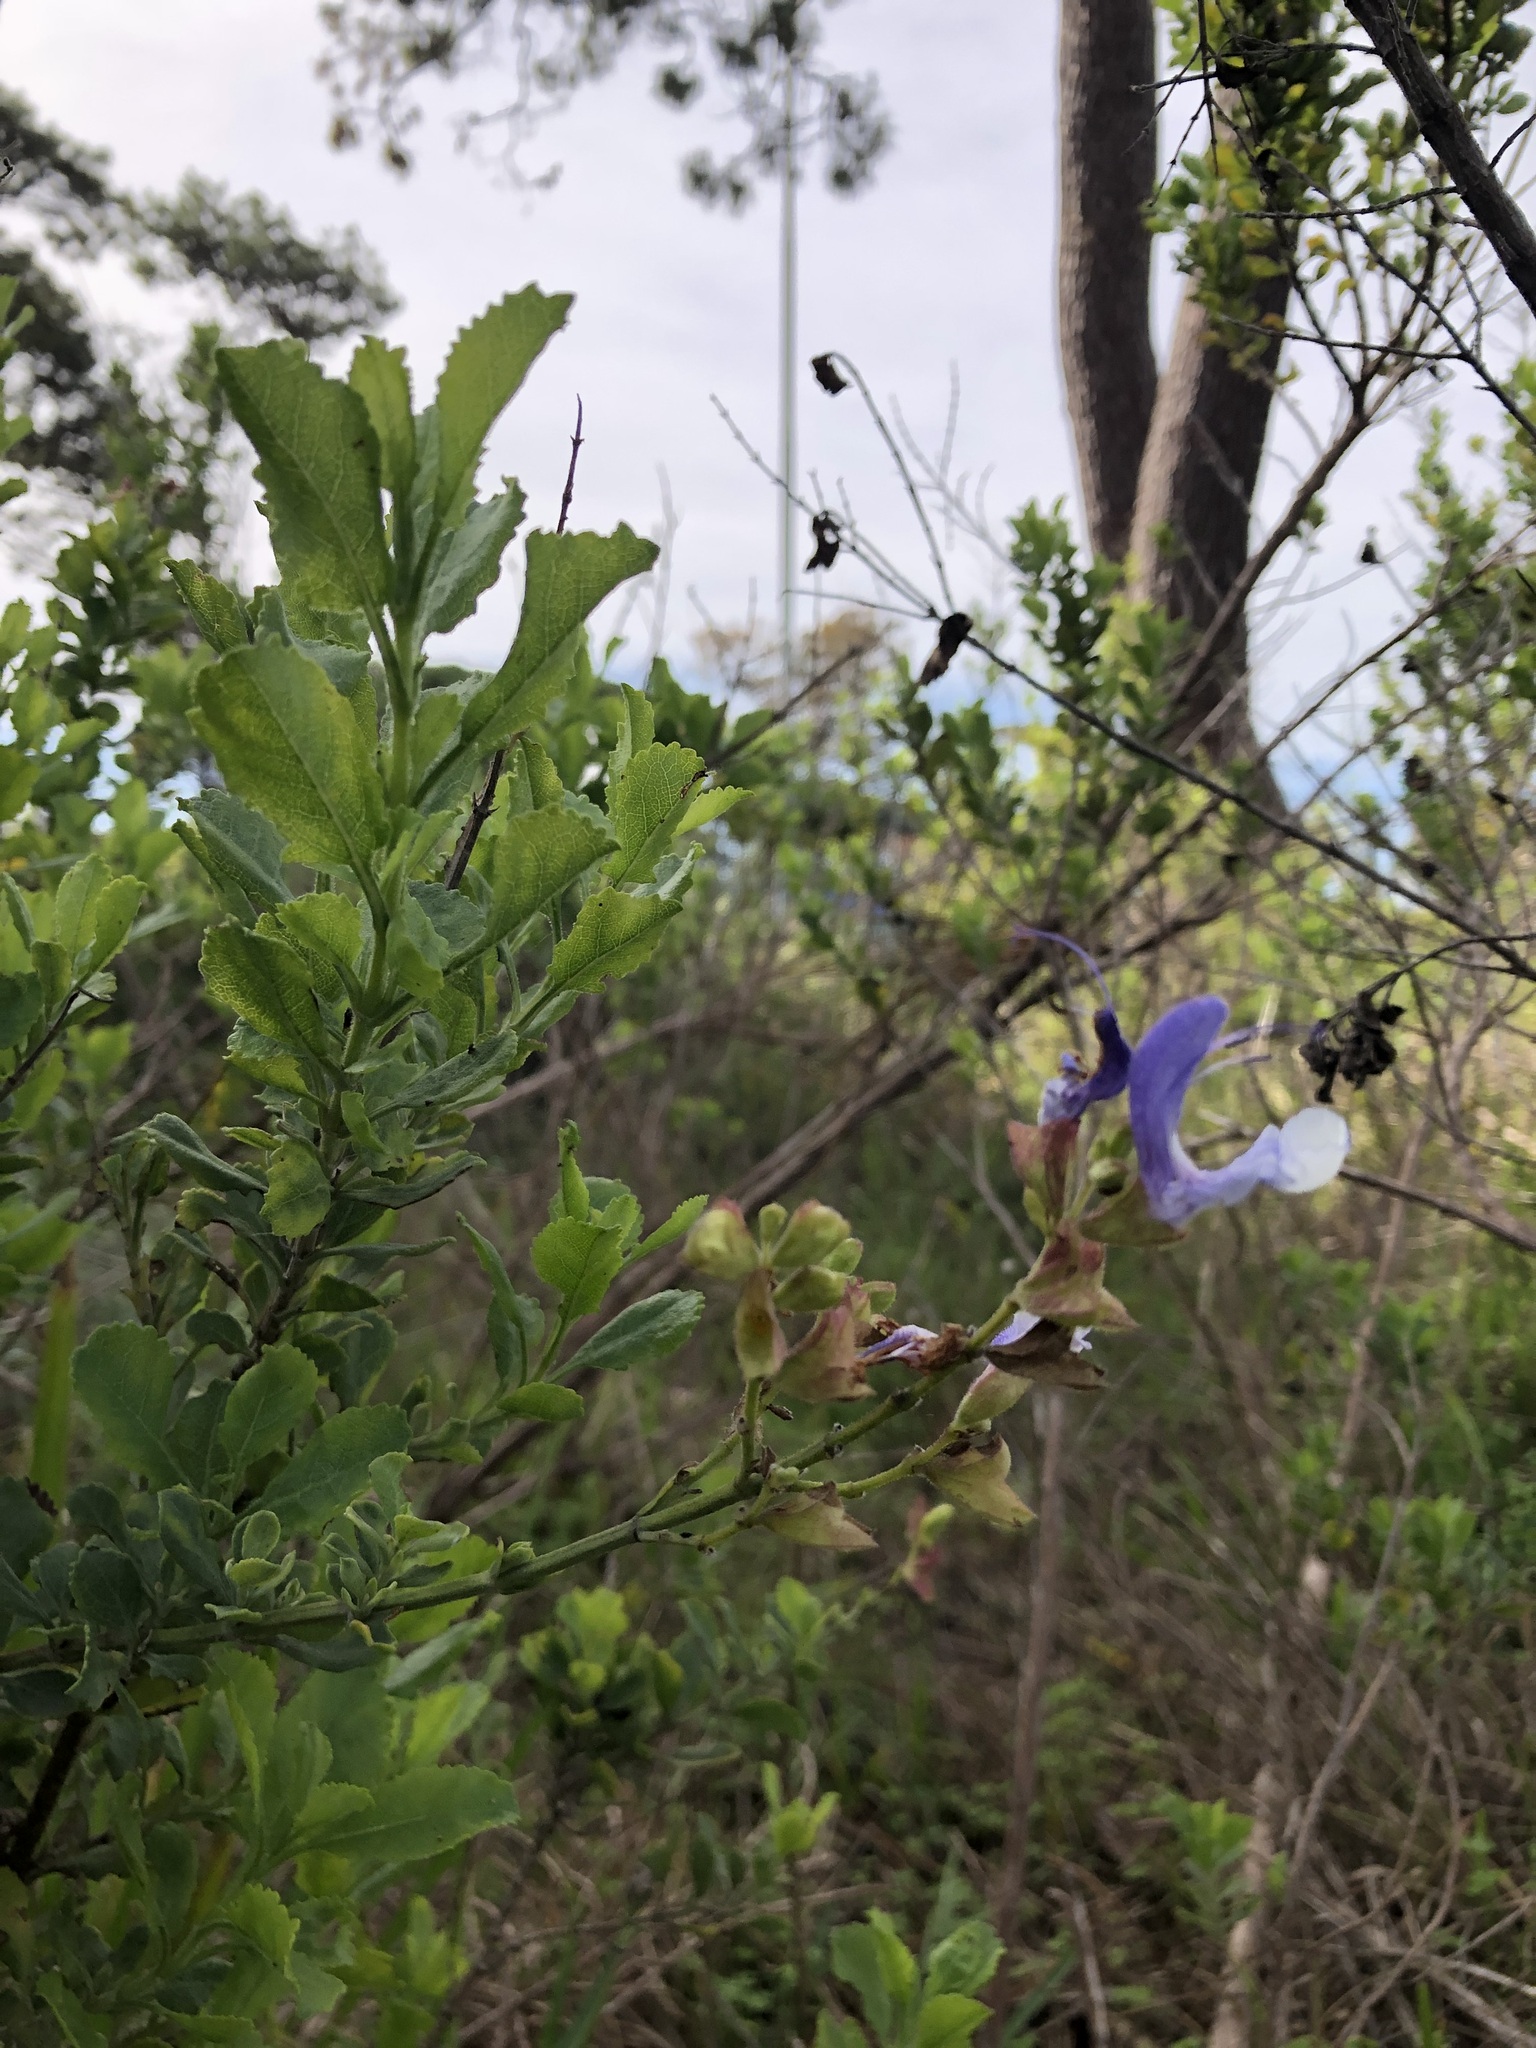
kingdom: Plantae
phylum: Tracheophyta
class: Magnoliopsida
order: Lamiales
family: Lamiaceae
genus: Salvia
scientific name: Salvia chamelaeagnea
